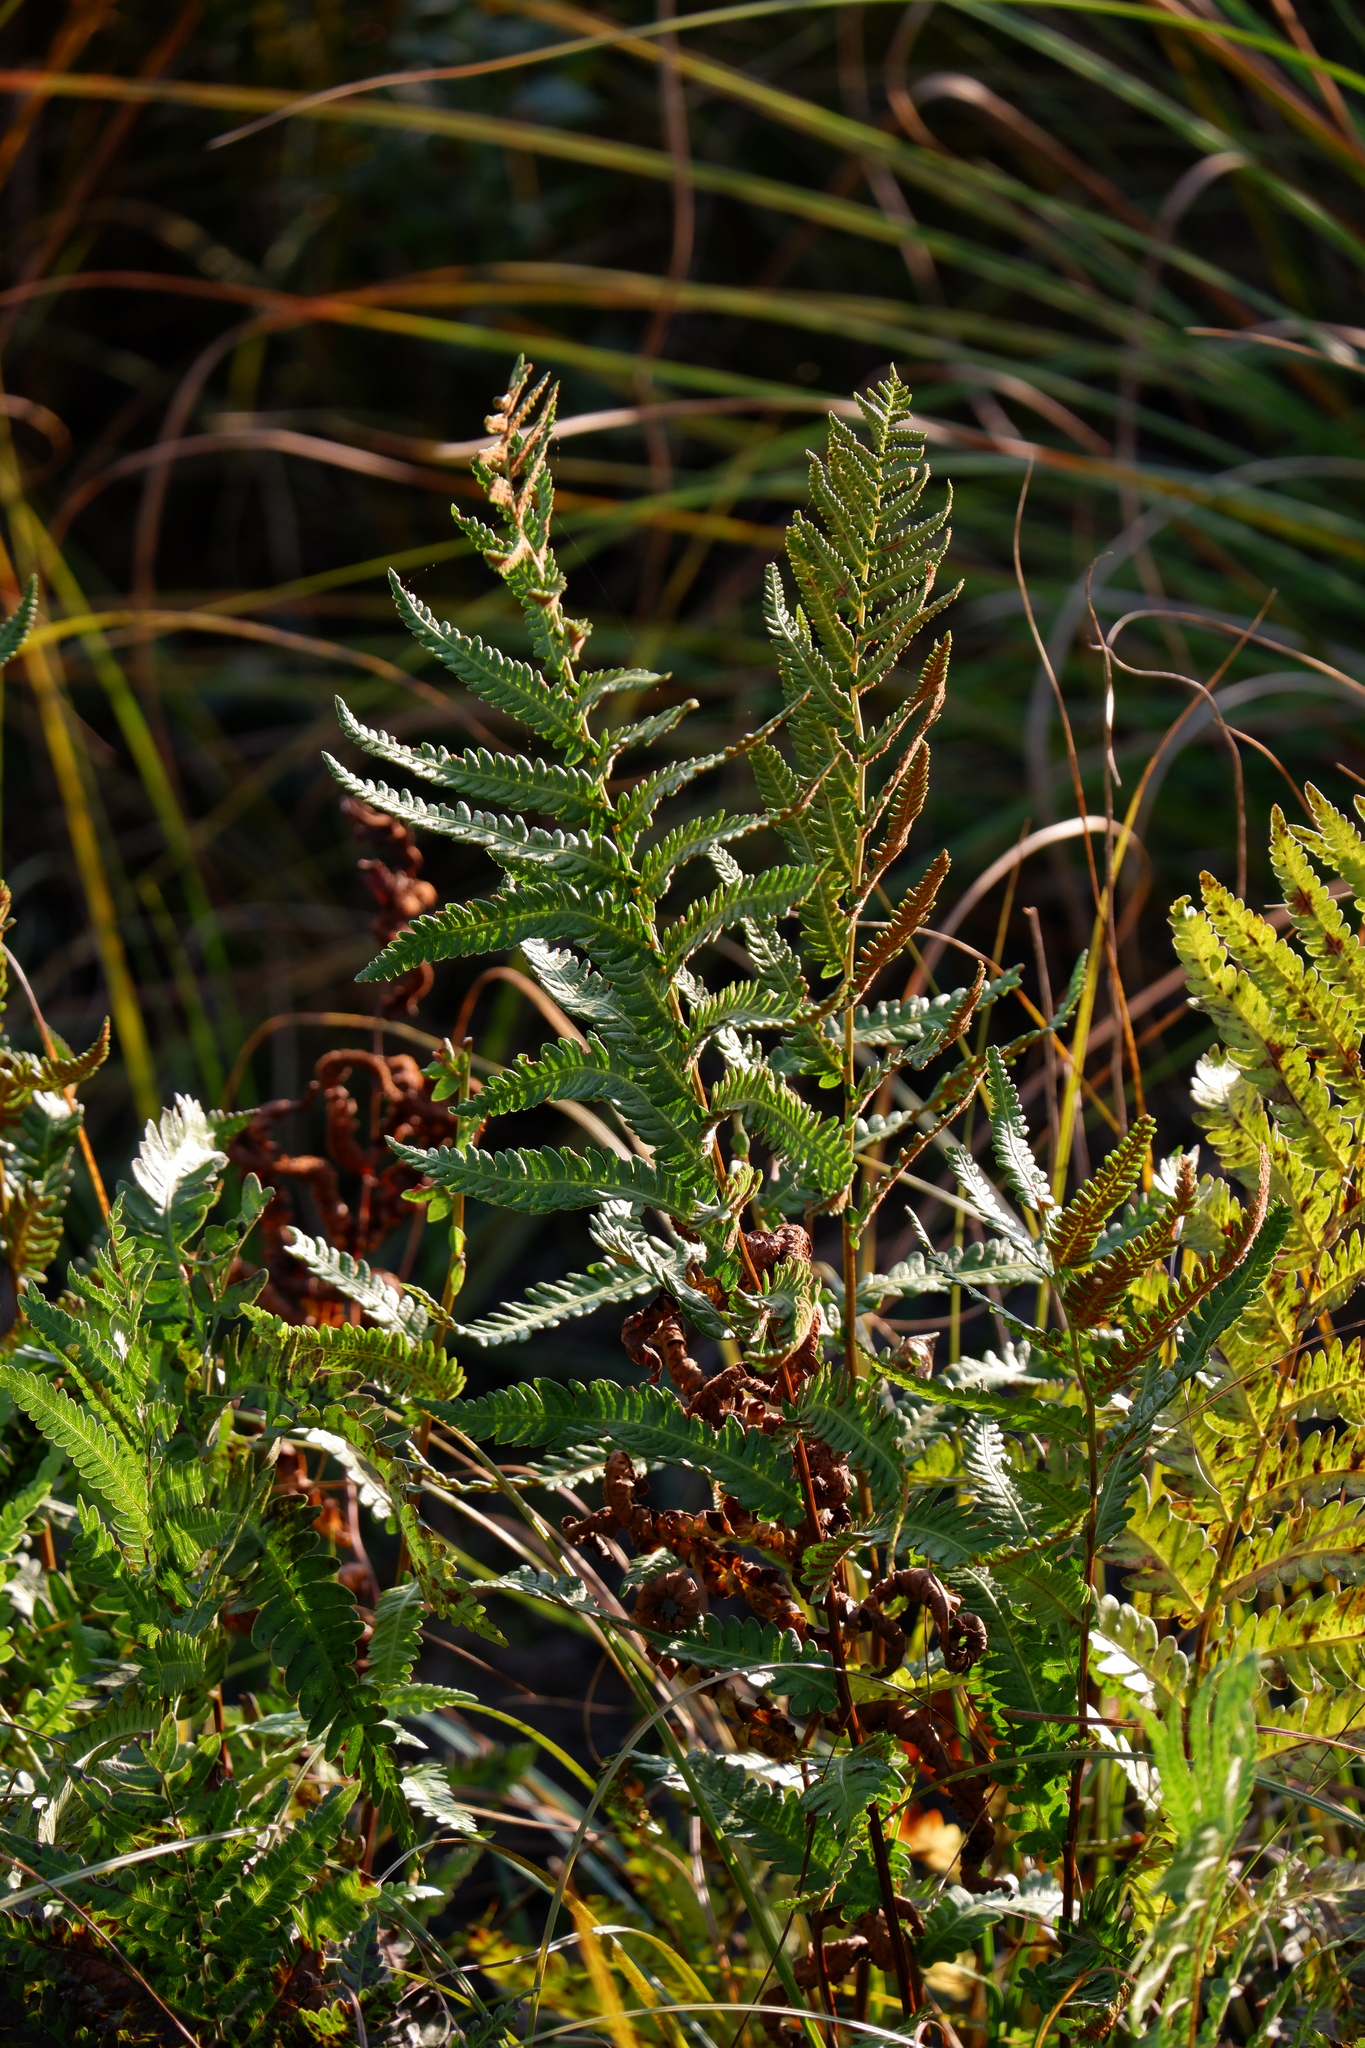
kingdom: Plantae
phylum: Tracheophyta
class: Polypodiopsida
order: Polypodiales
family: Blechnaceae
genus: Anchistea
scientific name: Anchistea virginica
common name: Virginia chain fern
